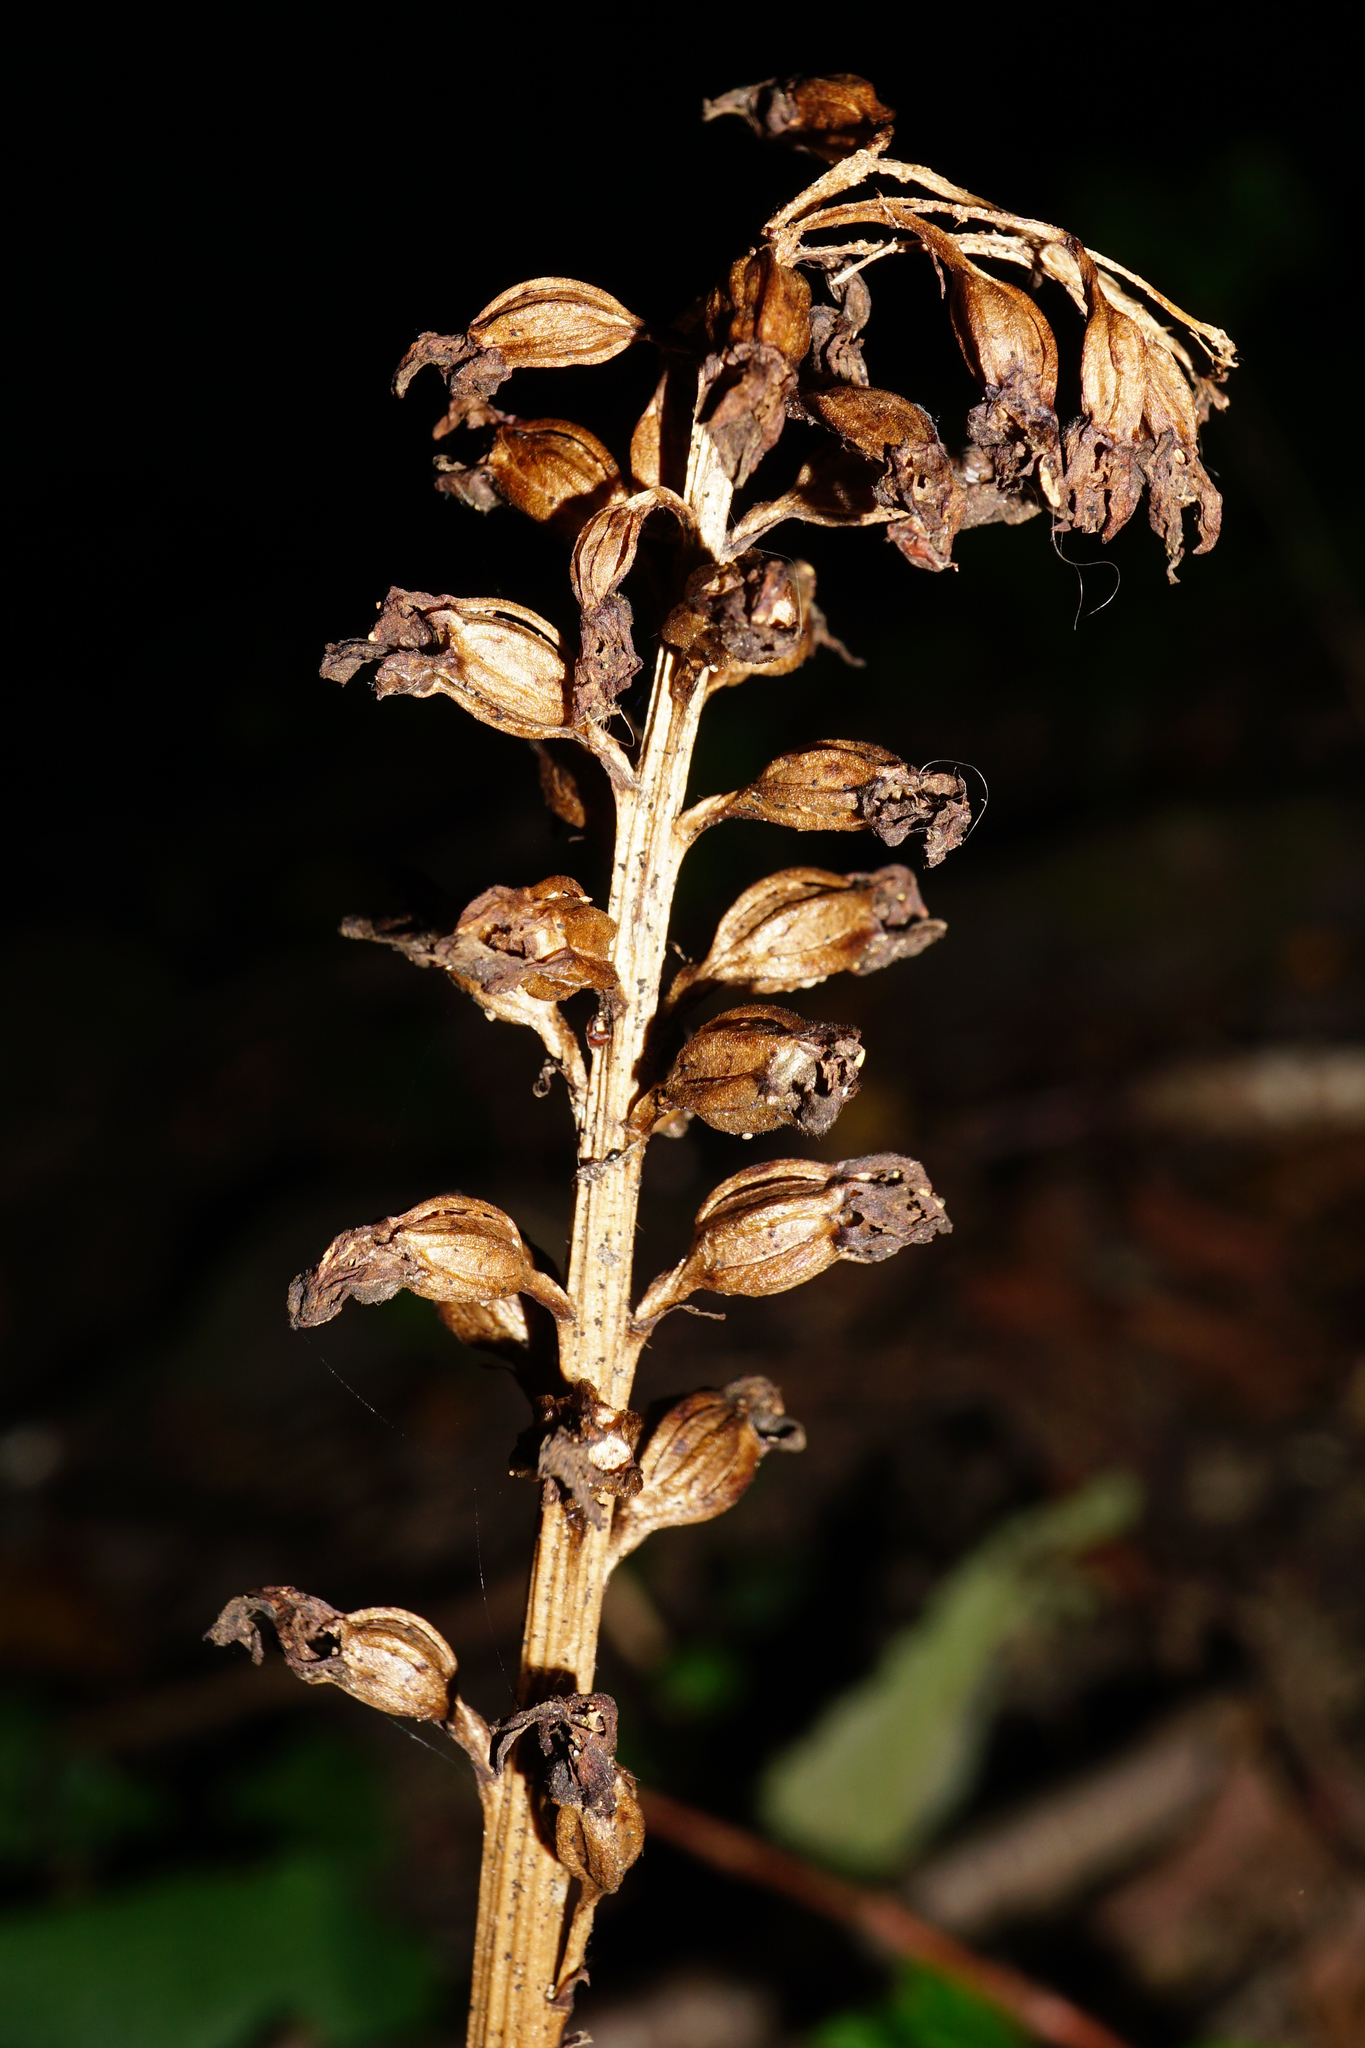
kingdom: Plantae
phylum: Tracheophyta
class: Liliopsida
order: Asparagales
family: Orchidaceae
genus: Neottia
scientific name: Neottia nidus-avis
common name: Bird's-nest orchid
